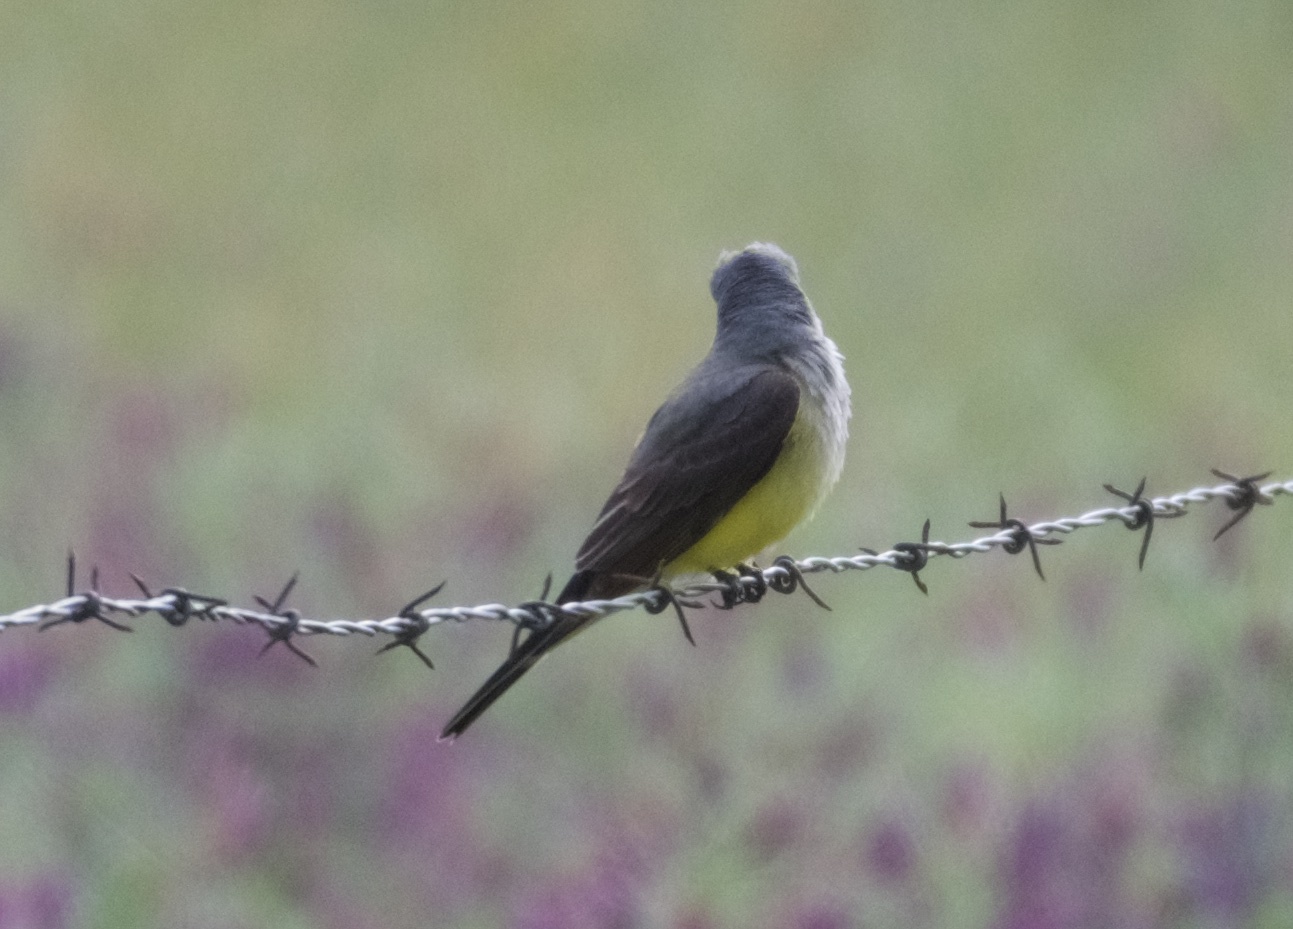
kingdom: Animalia
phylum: Chordata
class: Aves
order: Passeriformes
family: Tyrannidae
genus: Tyrannus
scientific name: Tyrannus verticalis
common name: Western kingbird
